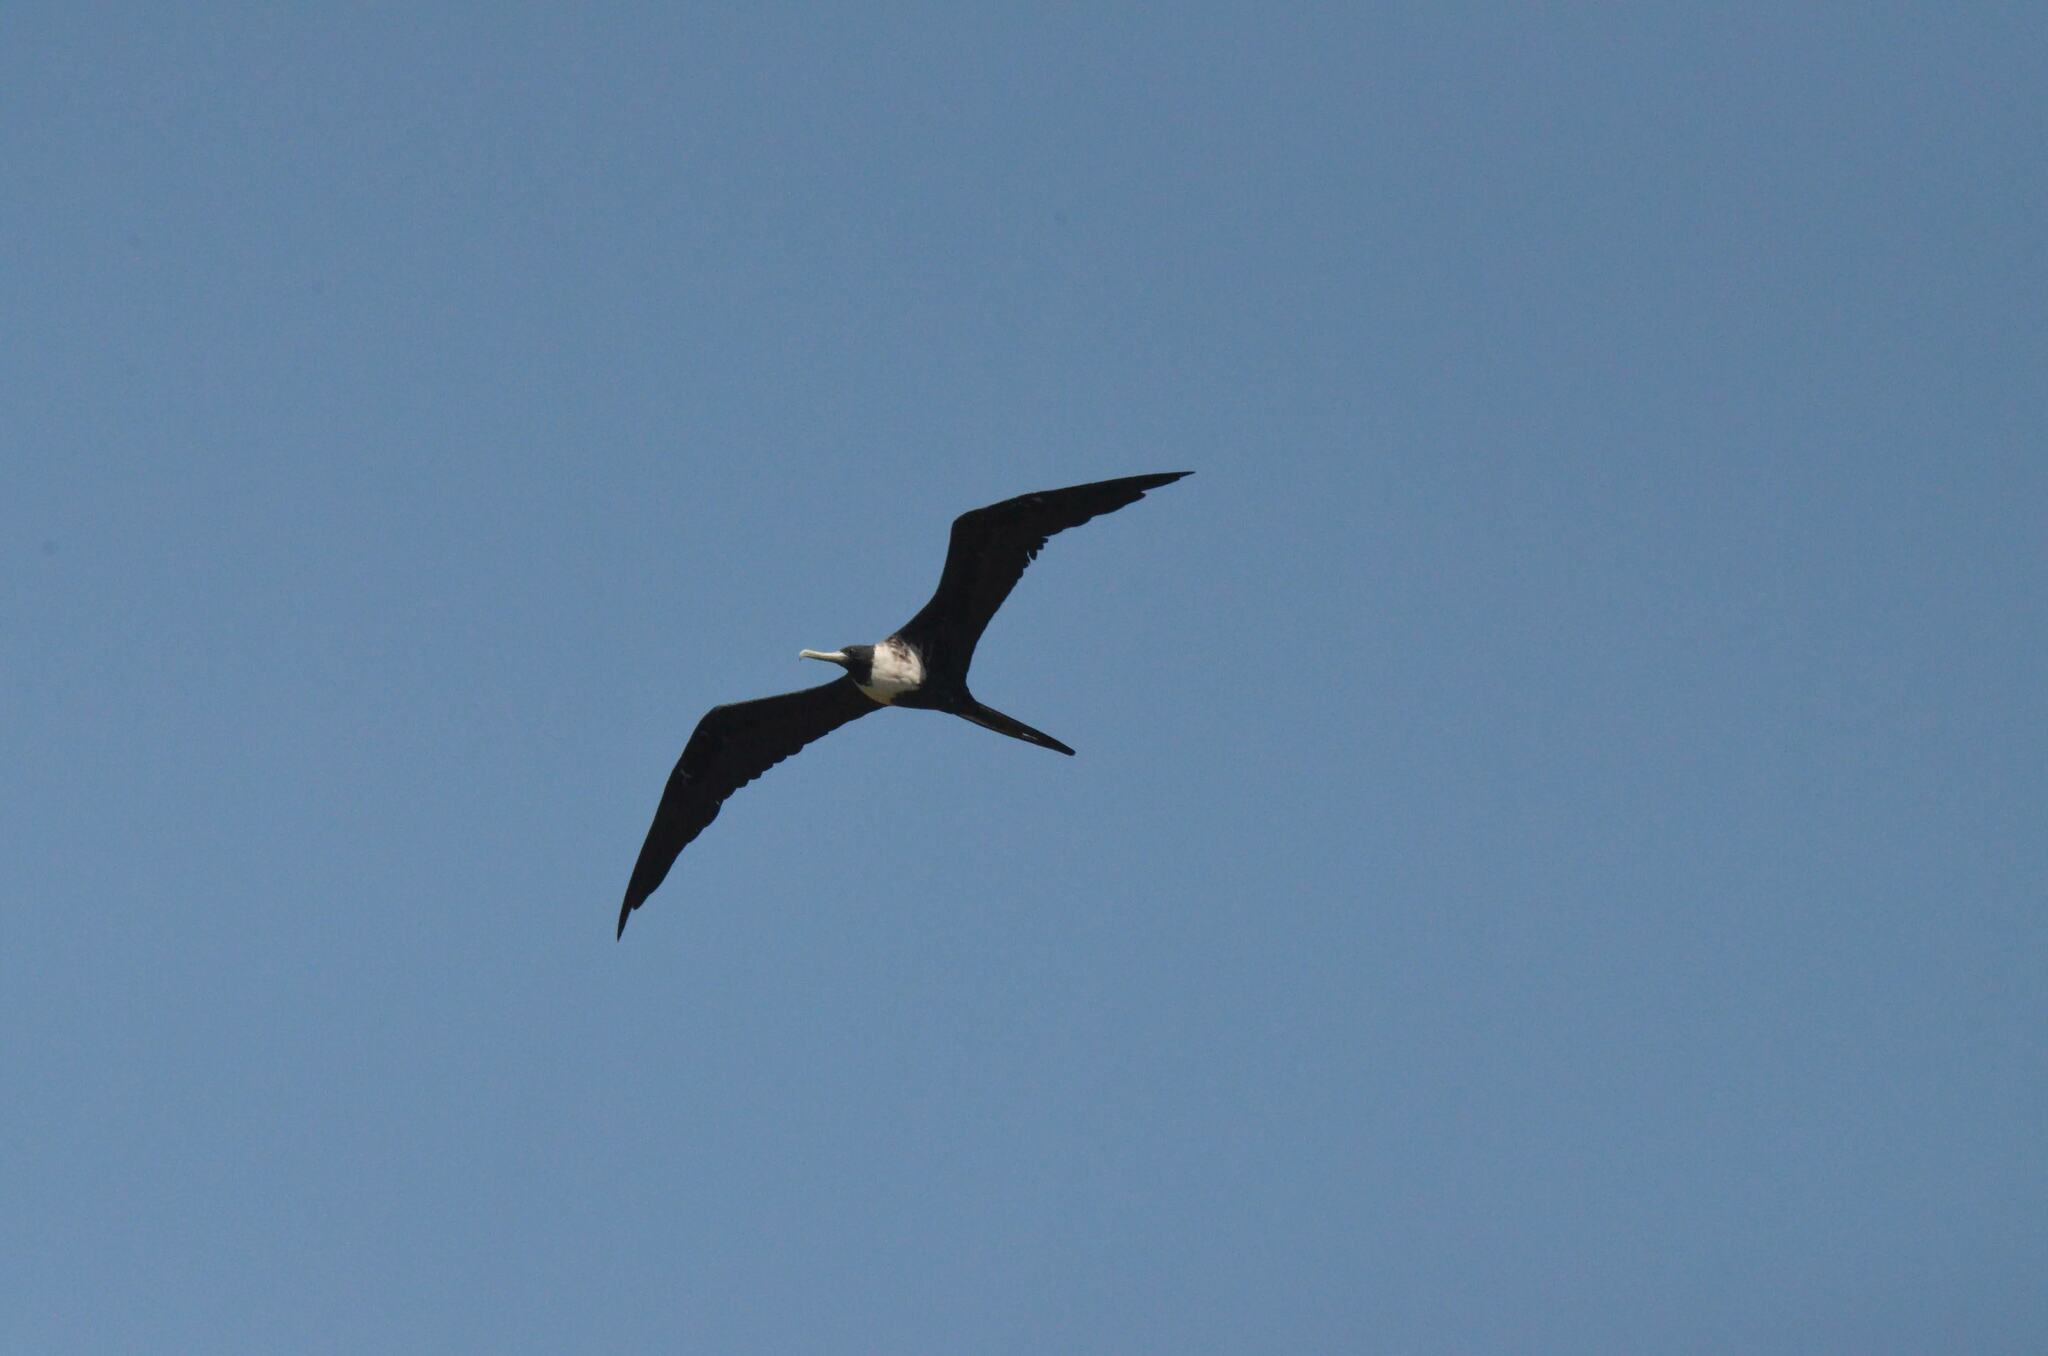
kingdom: Animalia
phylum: Chordata
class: Aves
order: Suliformes
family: Fregatidae
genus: Fregata
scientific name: Fregata magnificens
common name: Magnificent frigatebird
